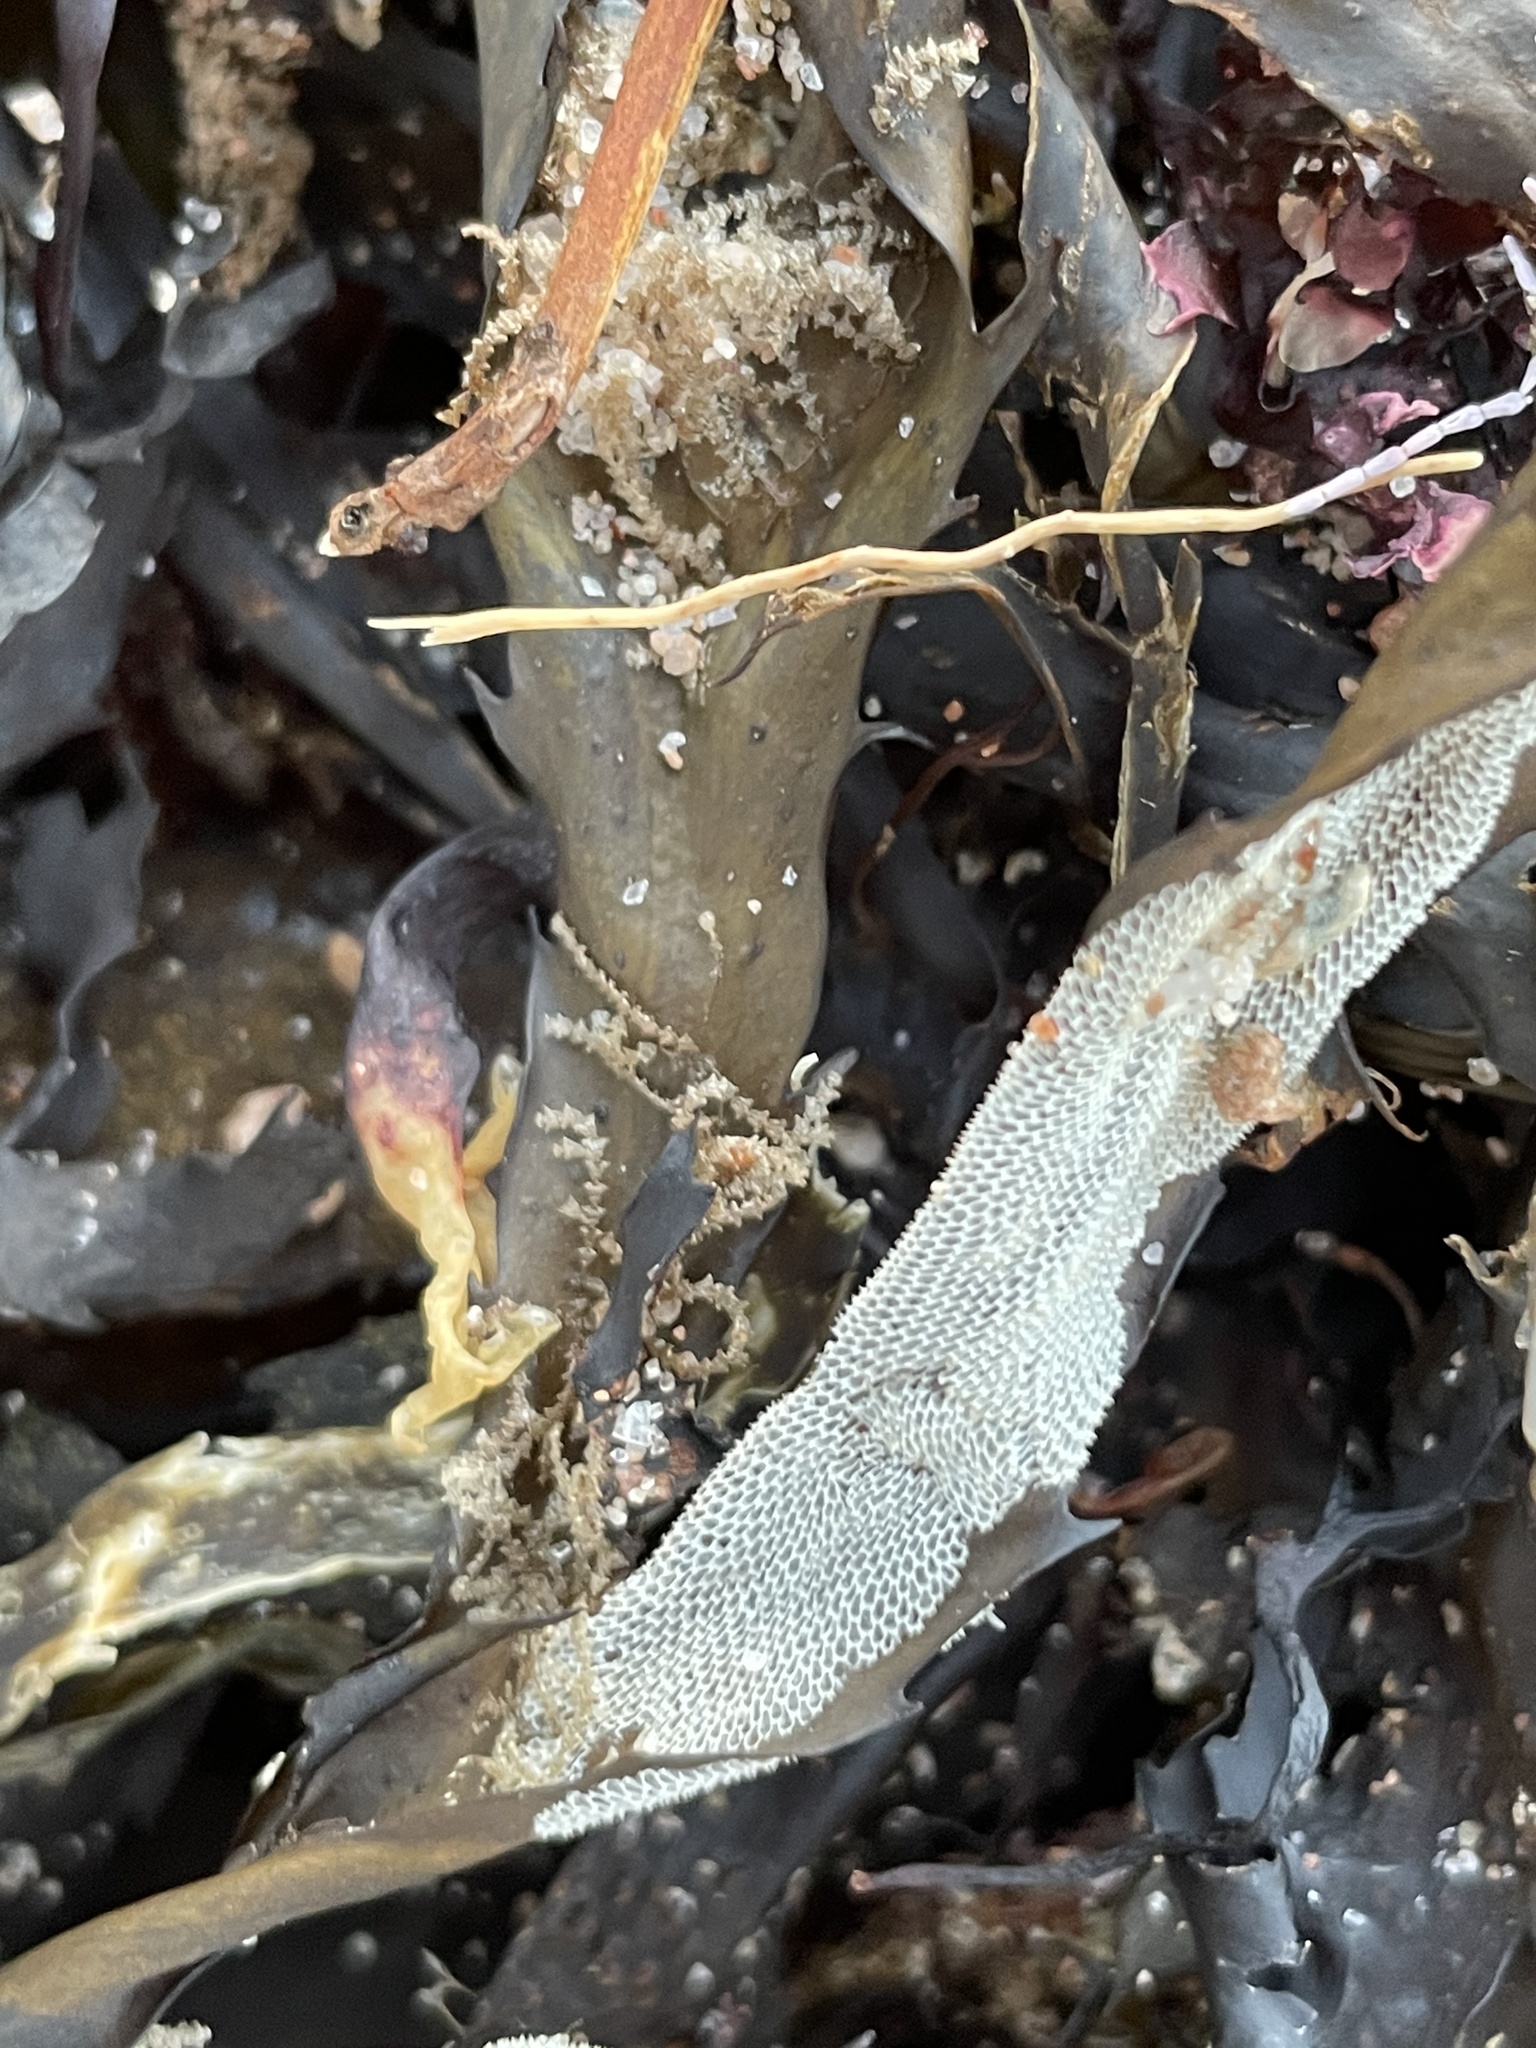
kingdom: Animalia
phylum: Bryozoa
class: Gymnolaemata
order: Cheilostomatida
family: Membraniporidae
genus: Membranipora
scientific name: Membranipora membranacea
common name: Sea mat
